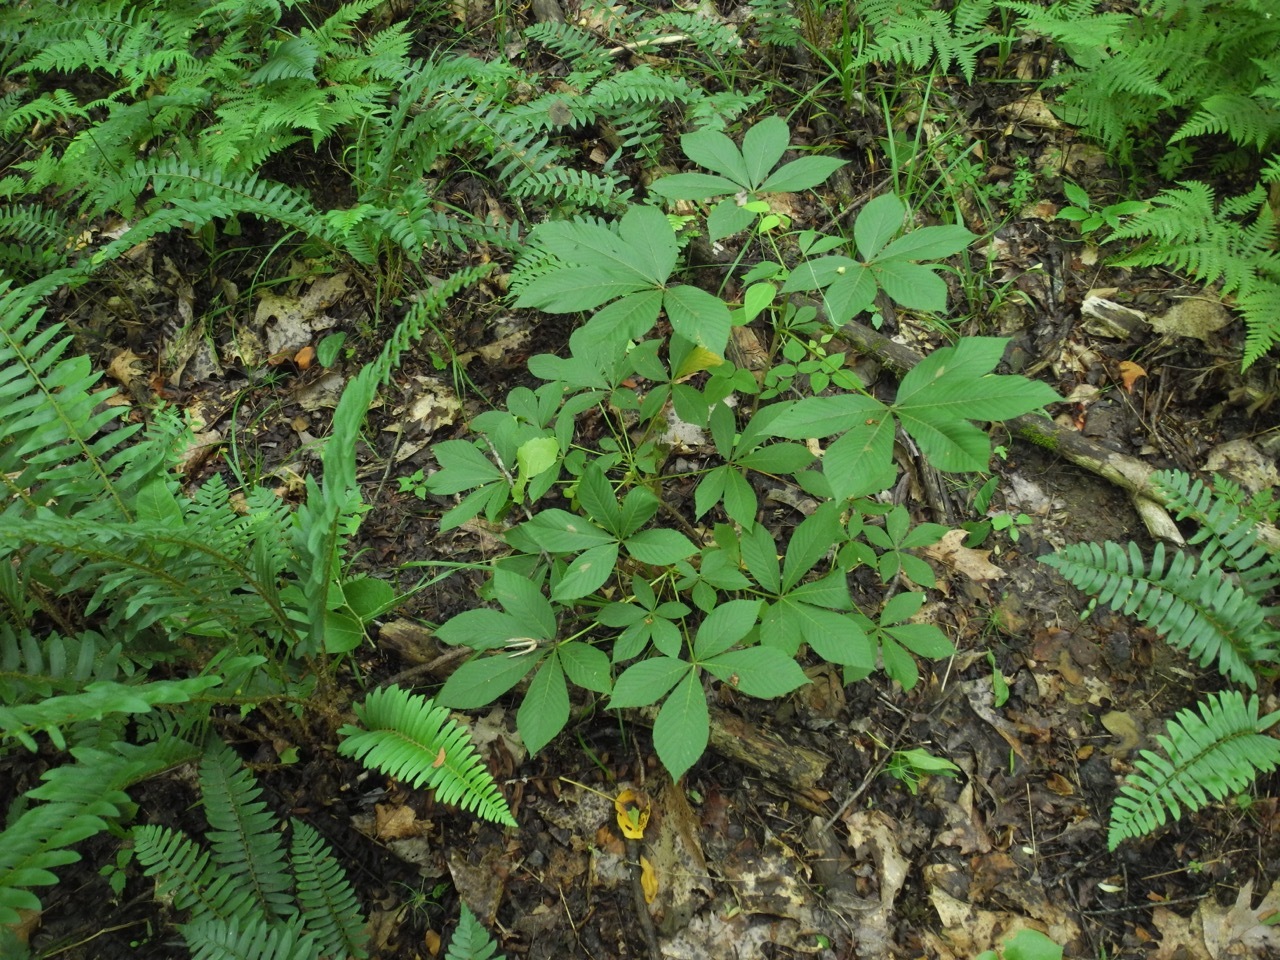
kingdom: Plantae
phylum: Tracheophyta
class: Magnoliopsida
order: Sapindales
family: Sapindaceae
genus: Aesculus
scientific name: Aesculus sylvatica
